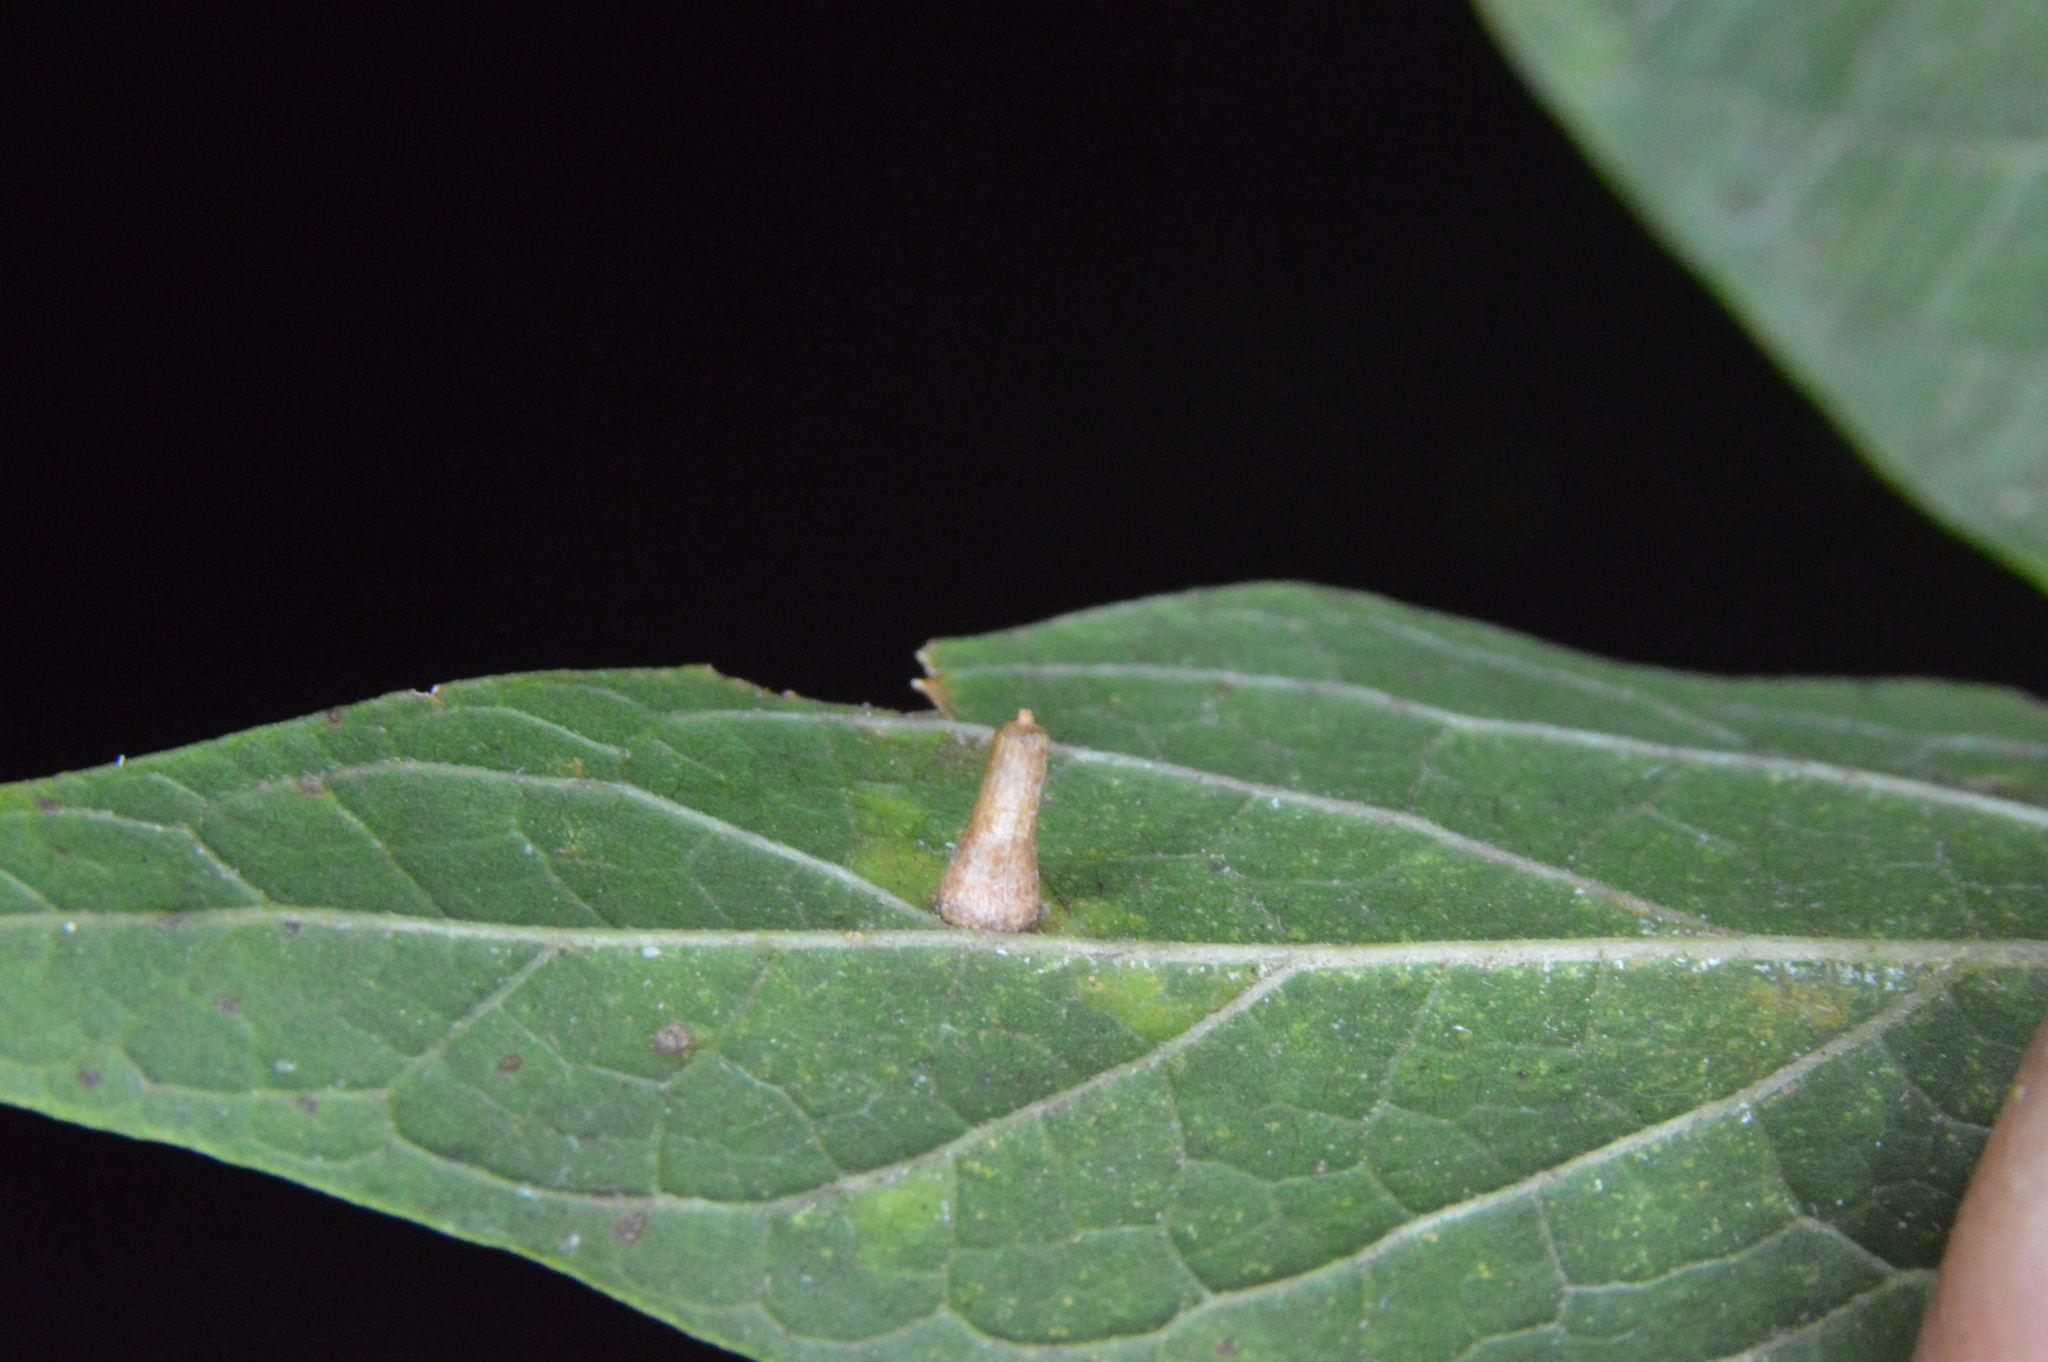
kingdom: Animalia
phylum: Arthropoda
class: Insecta
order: Diptera
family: Cecidomyiidae
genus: Celticecis
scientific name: Celticecis aciculata
